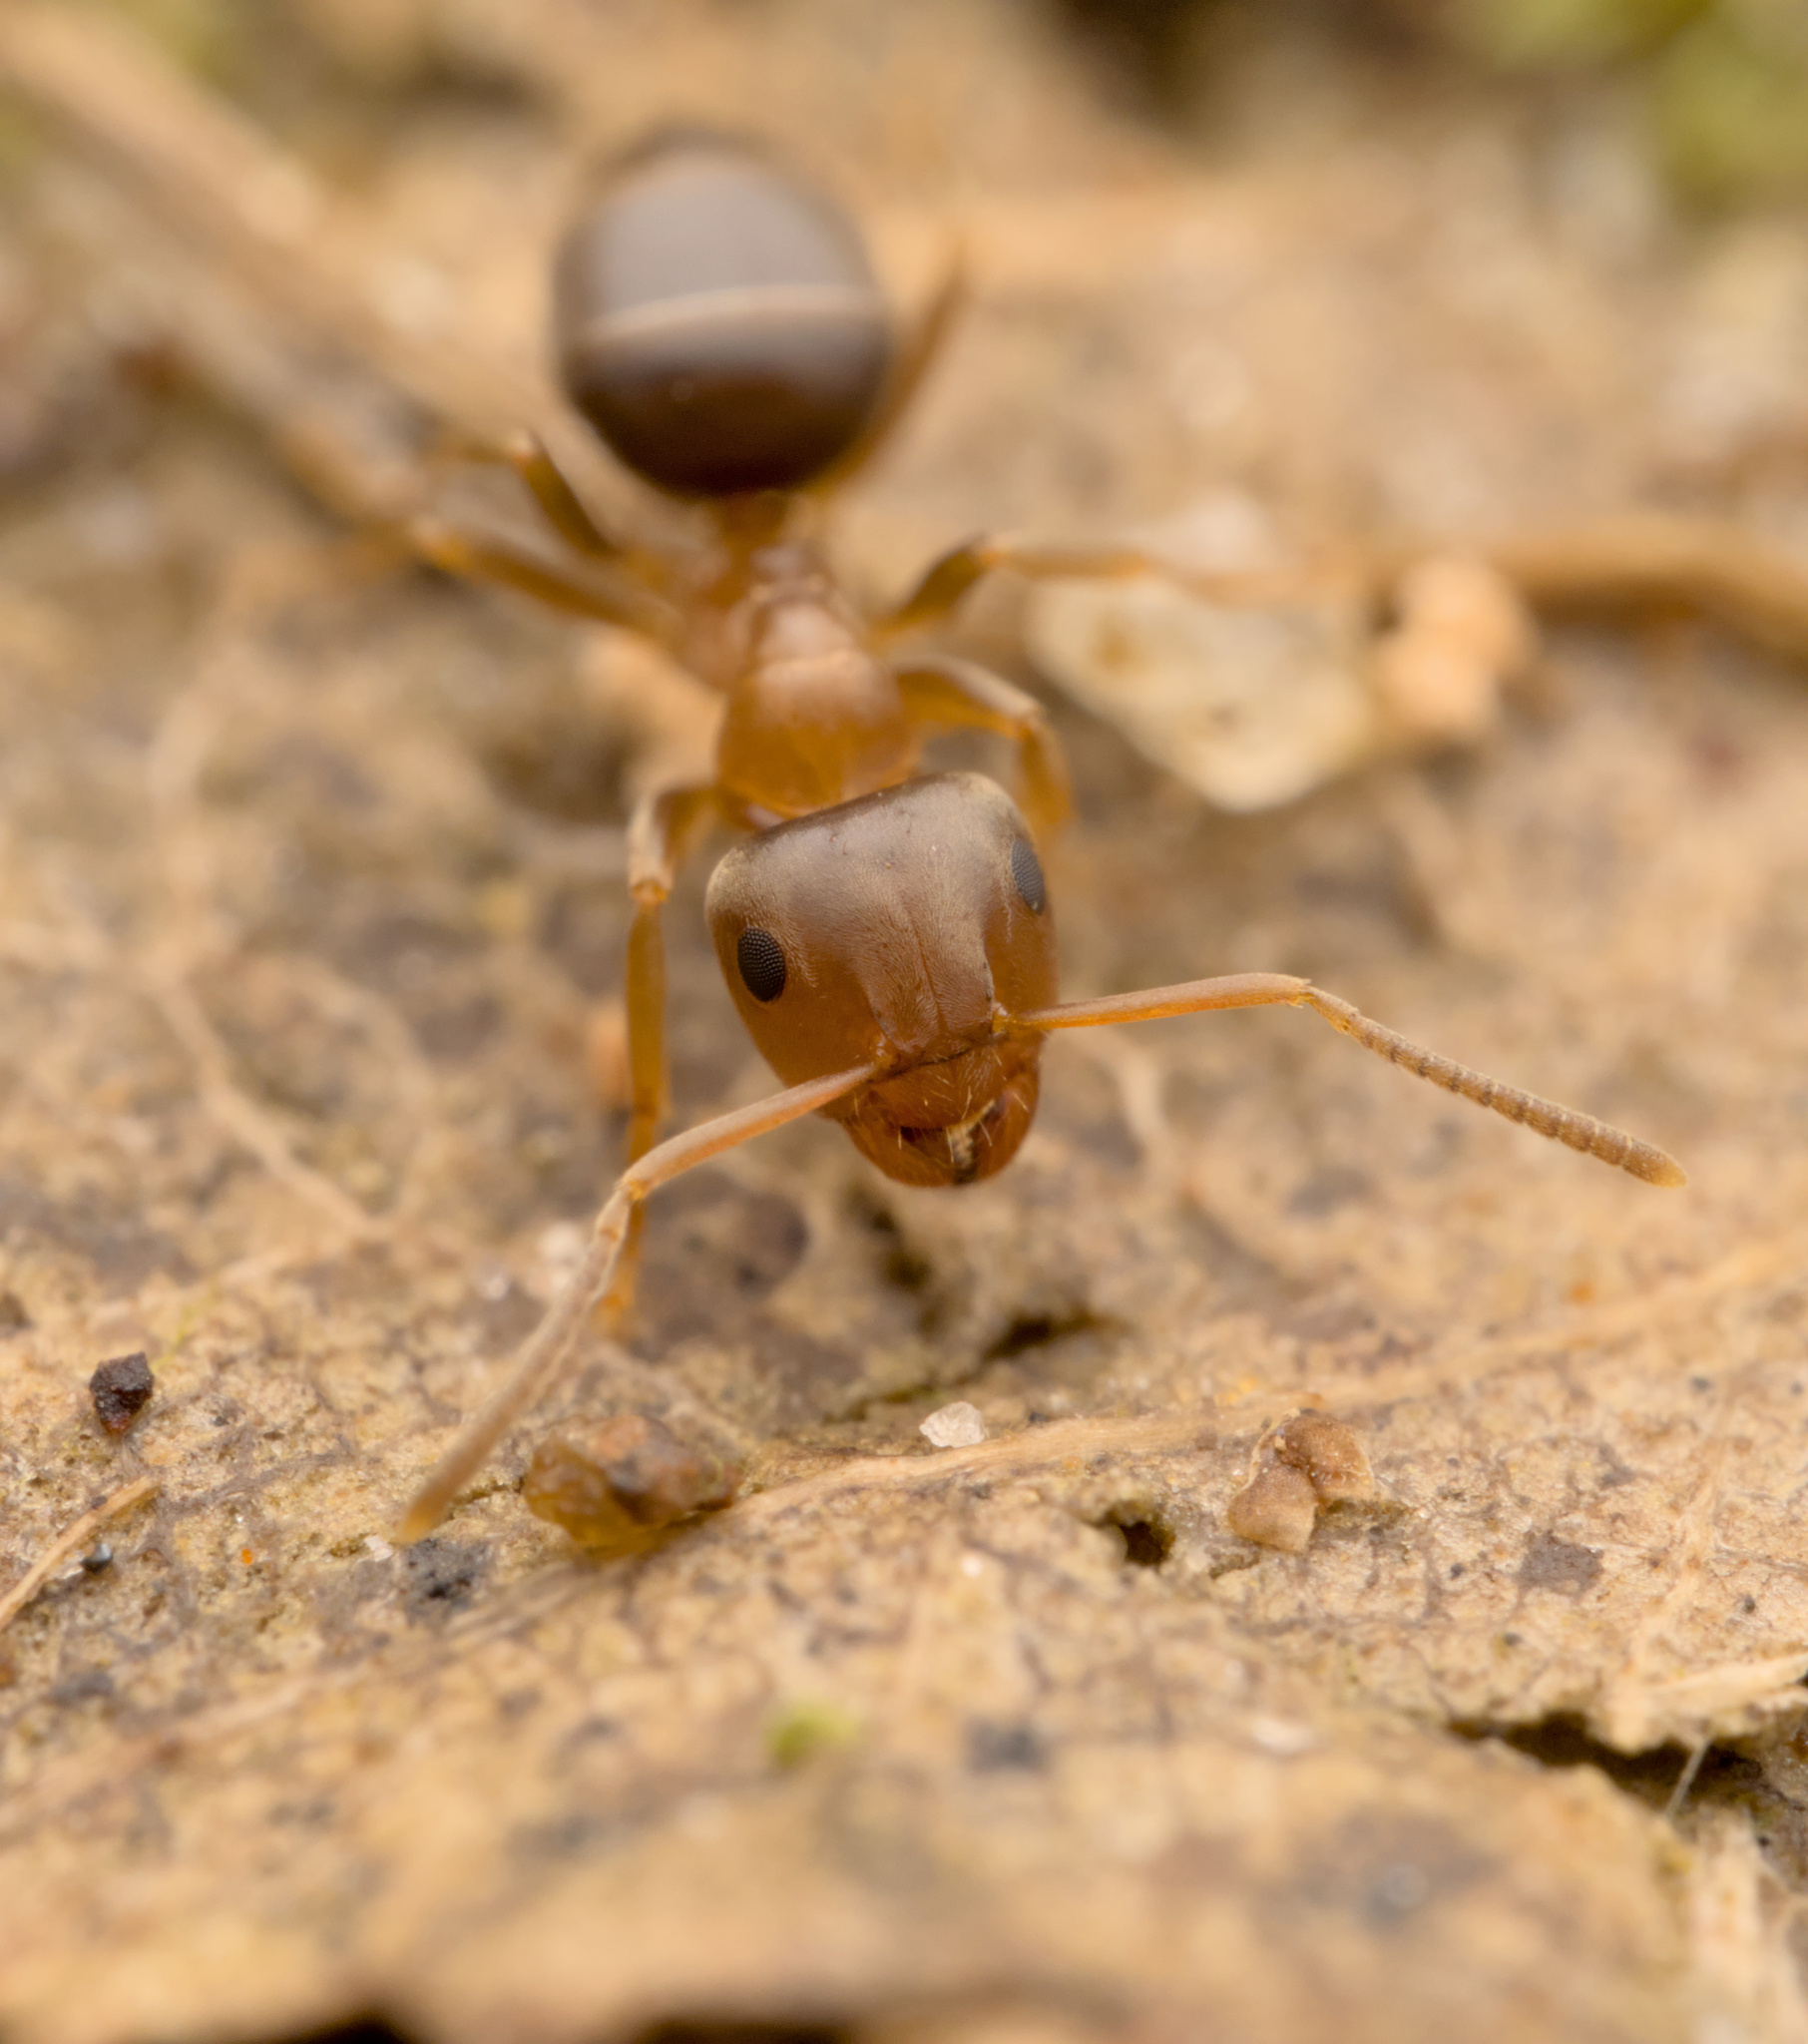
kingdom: Animalia
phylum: Arthropoda
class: Insecta
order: Hymenoptera
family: Formicidae
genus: Lasius
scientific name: Lasius brunneus
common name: Brown ant
